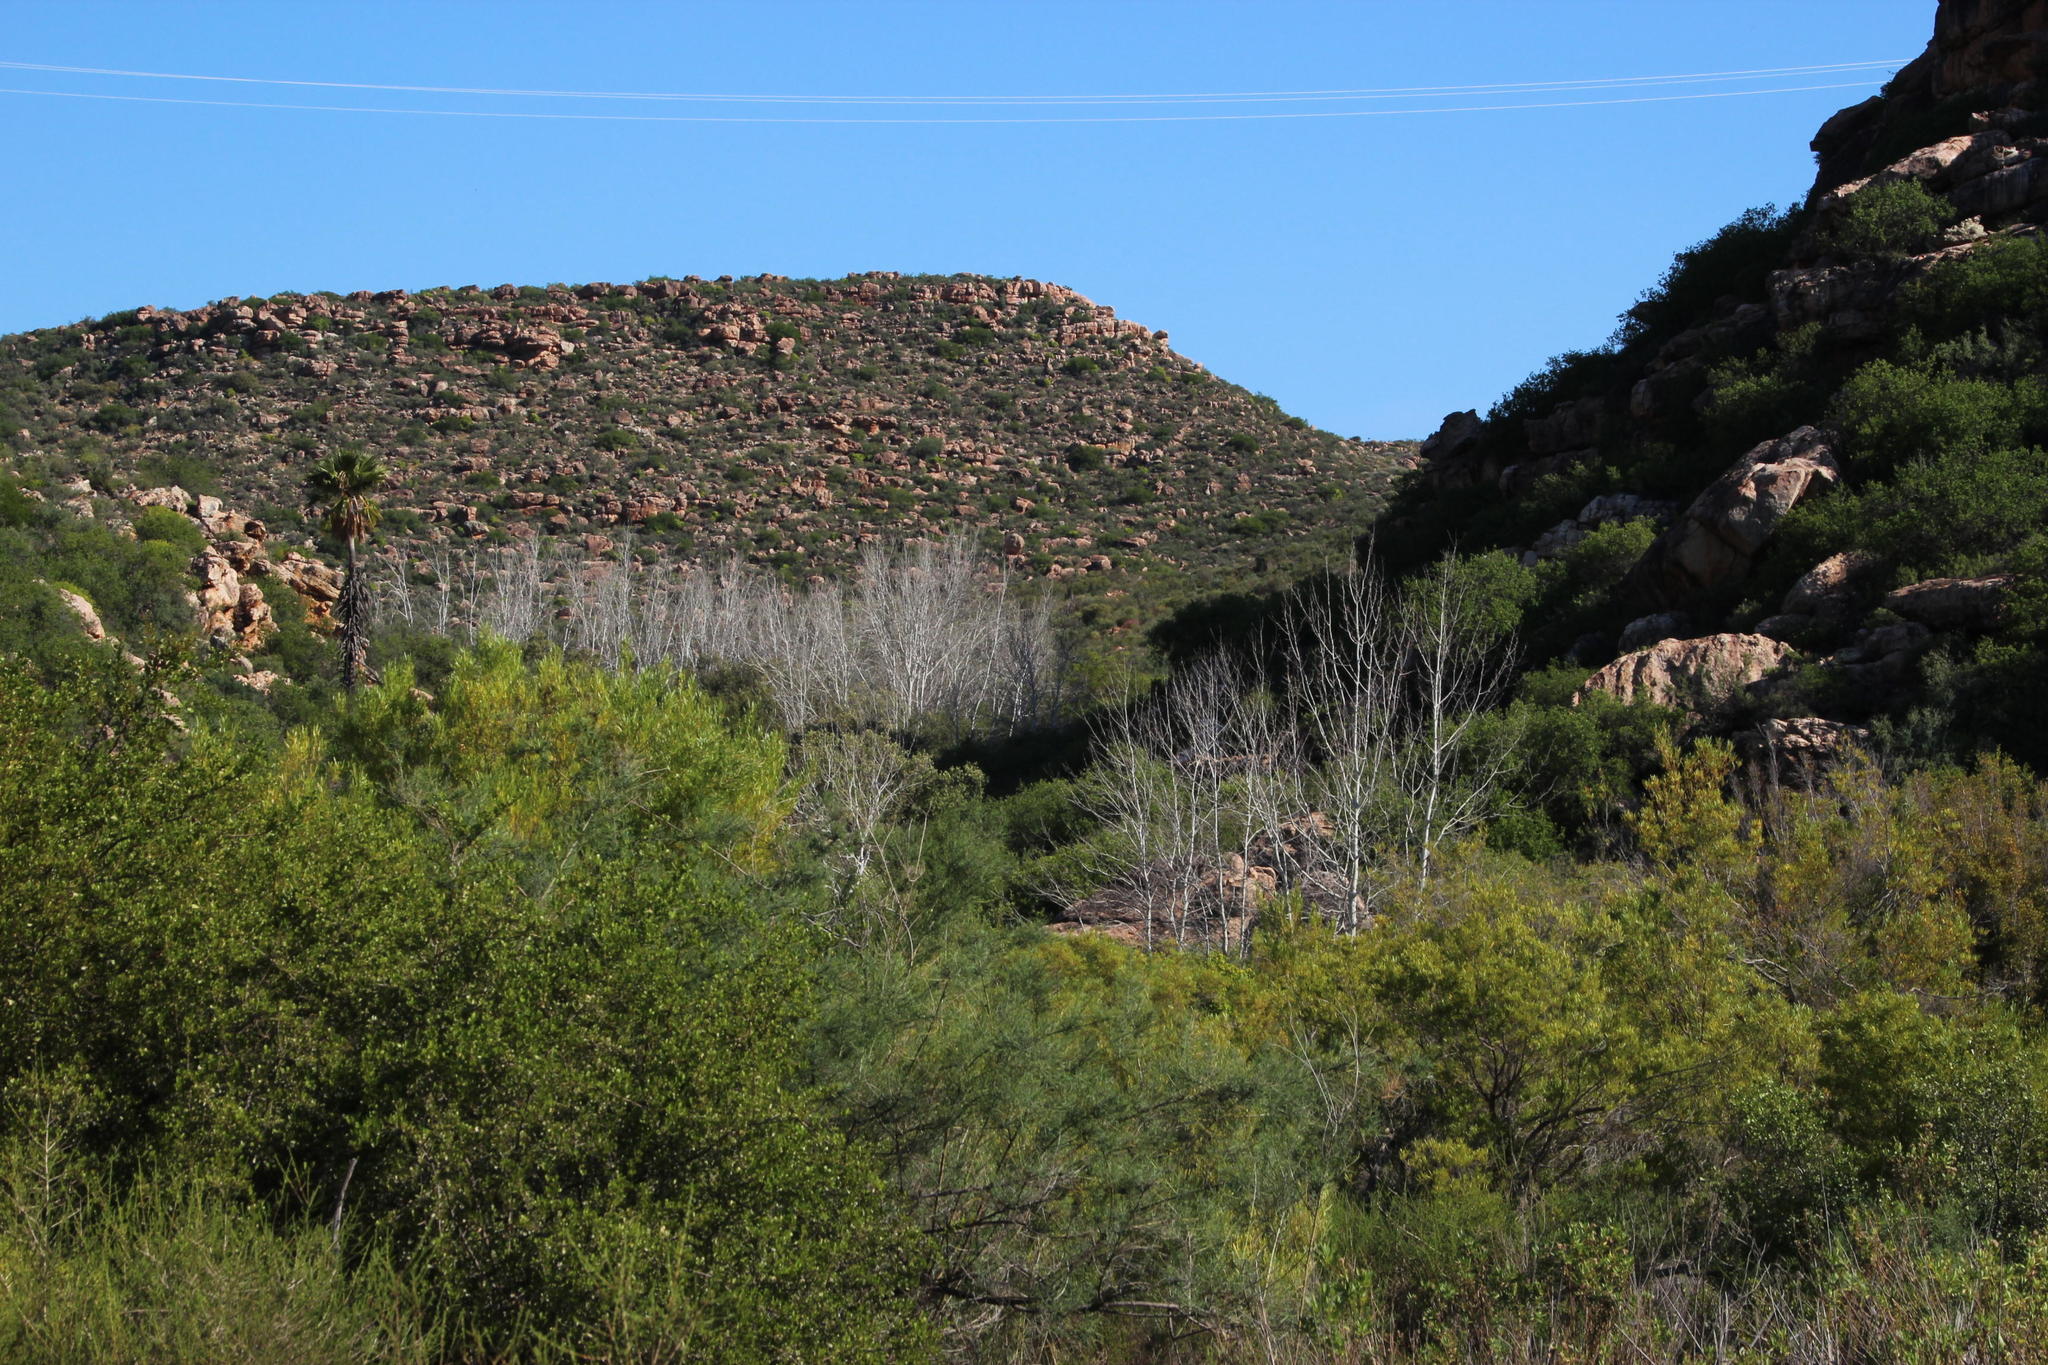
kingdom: Plantae
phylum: Tracheophyta
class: Magnoliopsida
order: Malpighiales
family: Salicaceae
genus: Populus
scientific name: Populus canescens
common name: Gray poplar
